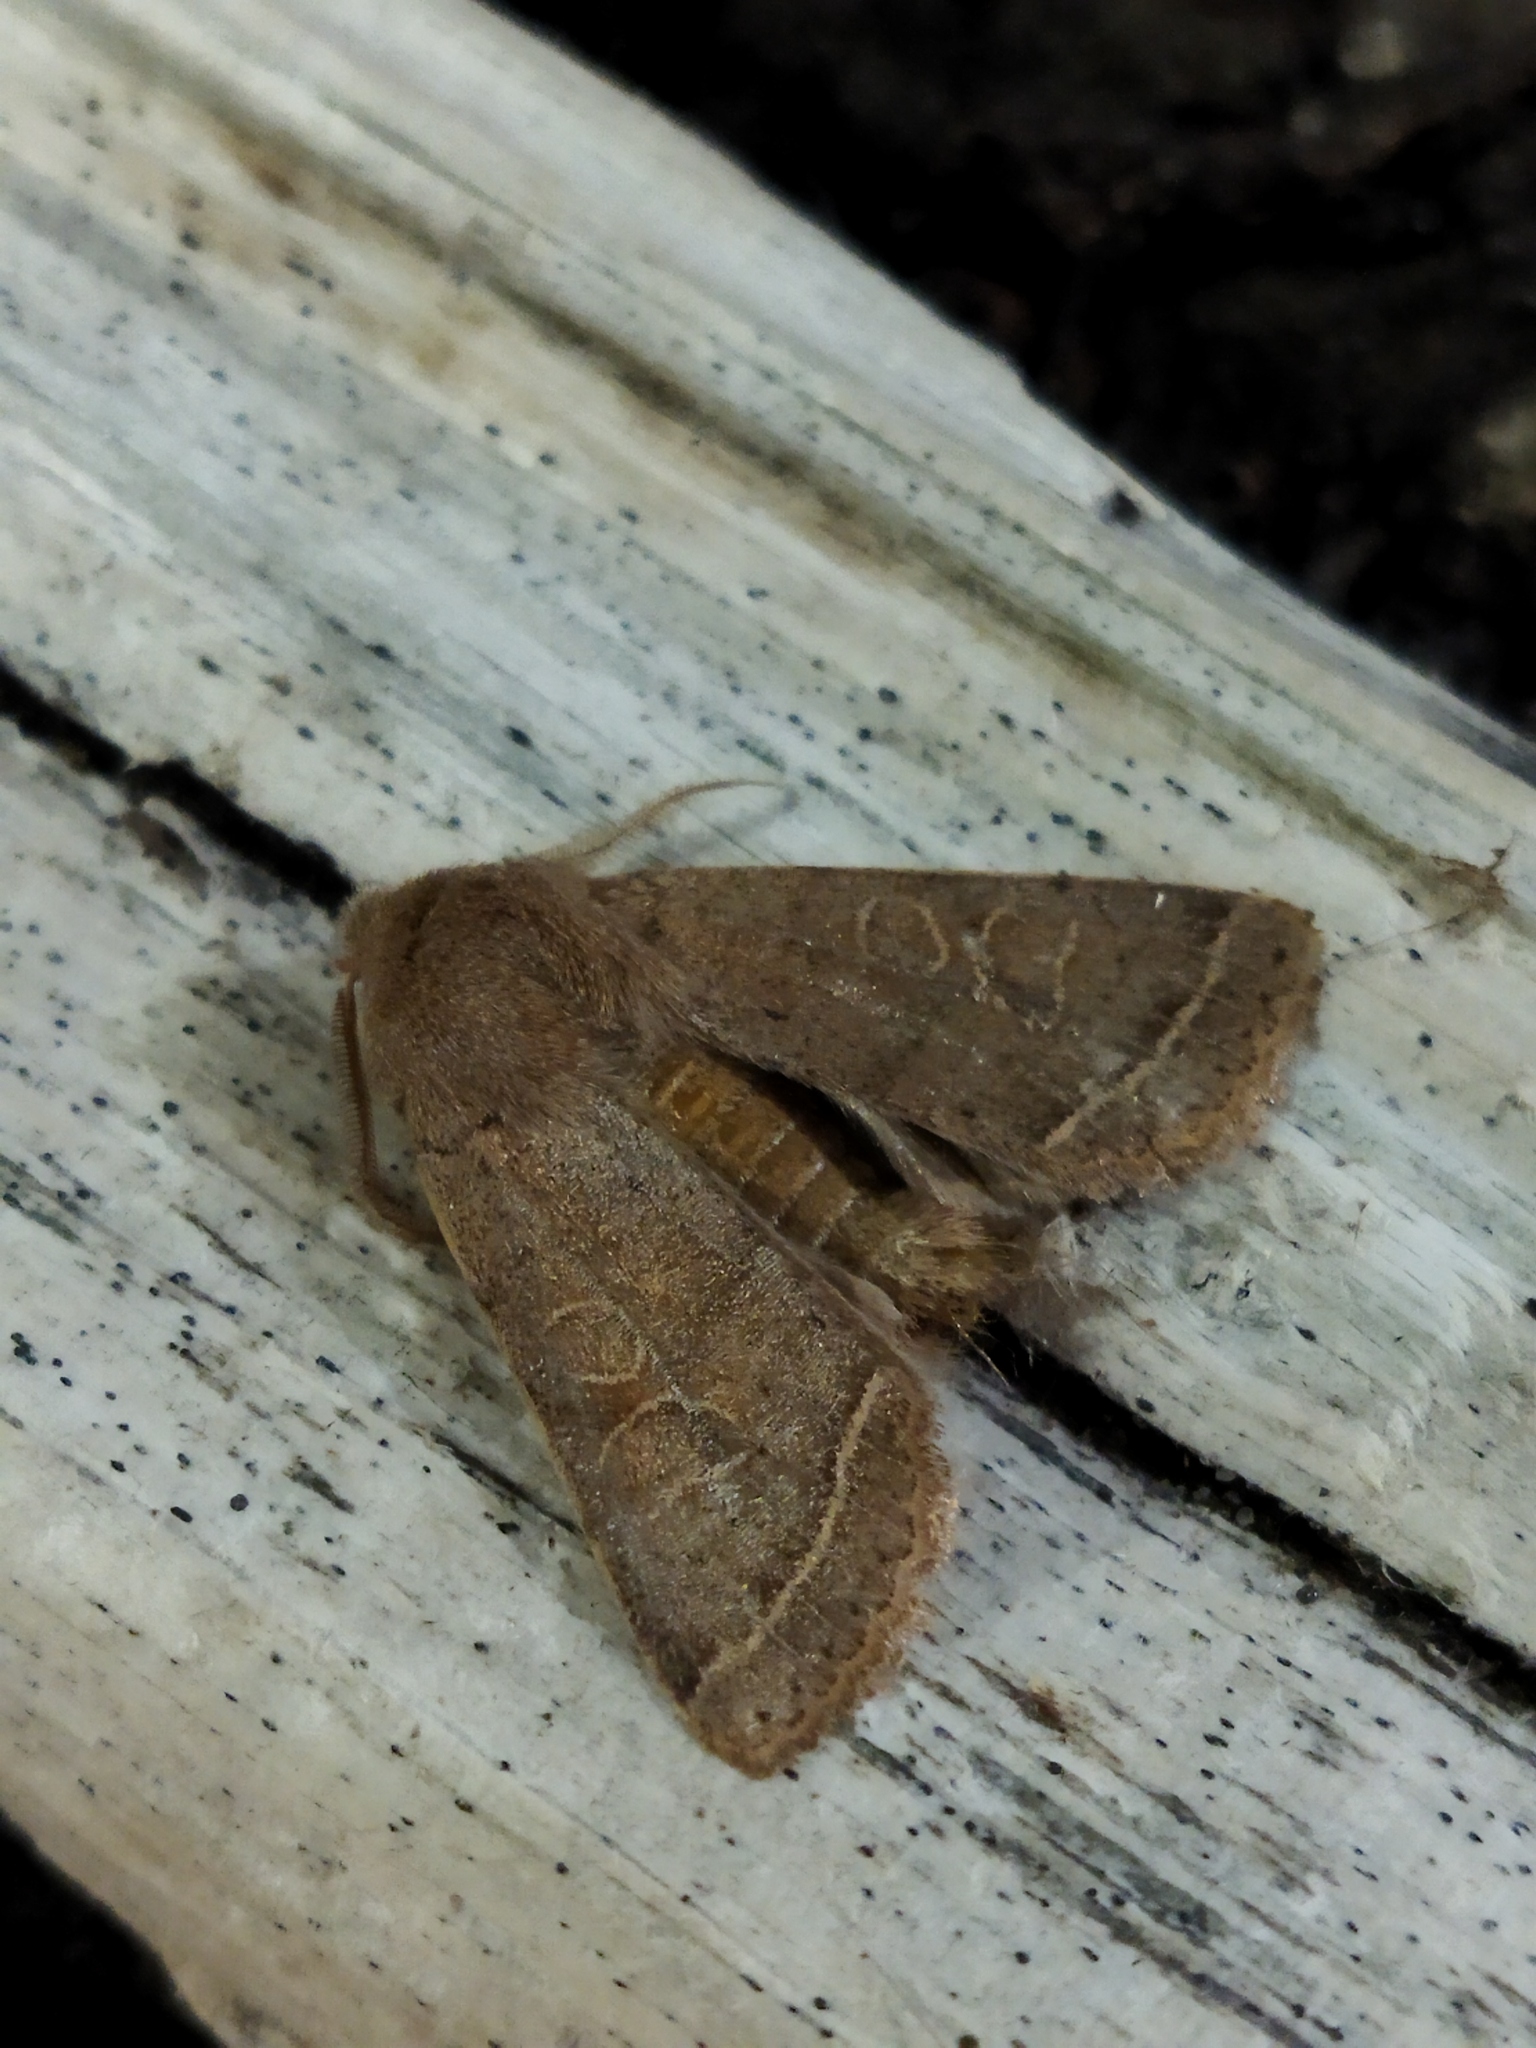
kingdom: Animalia
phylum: Arthropoda
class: Insecta
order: Lepidoptera
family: Noctuidae
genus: Orthosia
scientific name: Orthosia cerasi
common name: Common quaker
